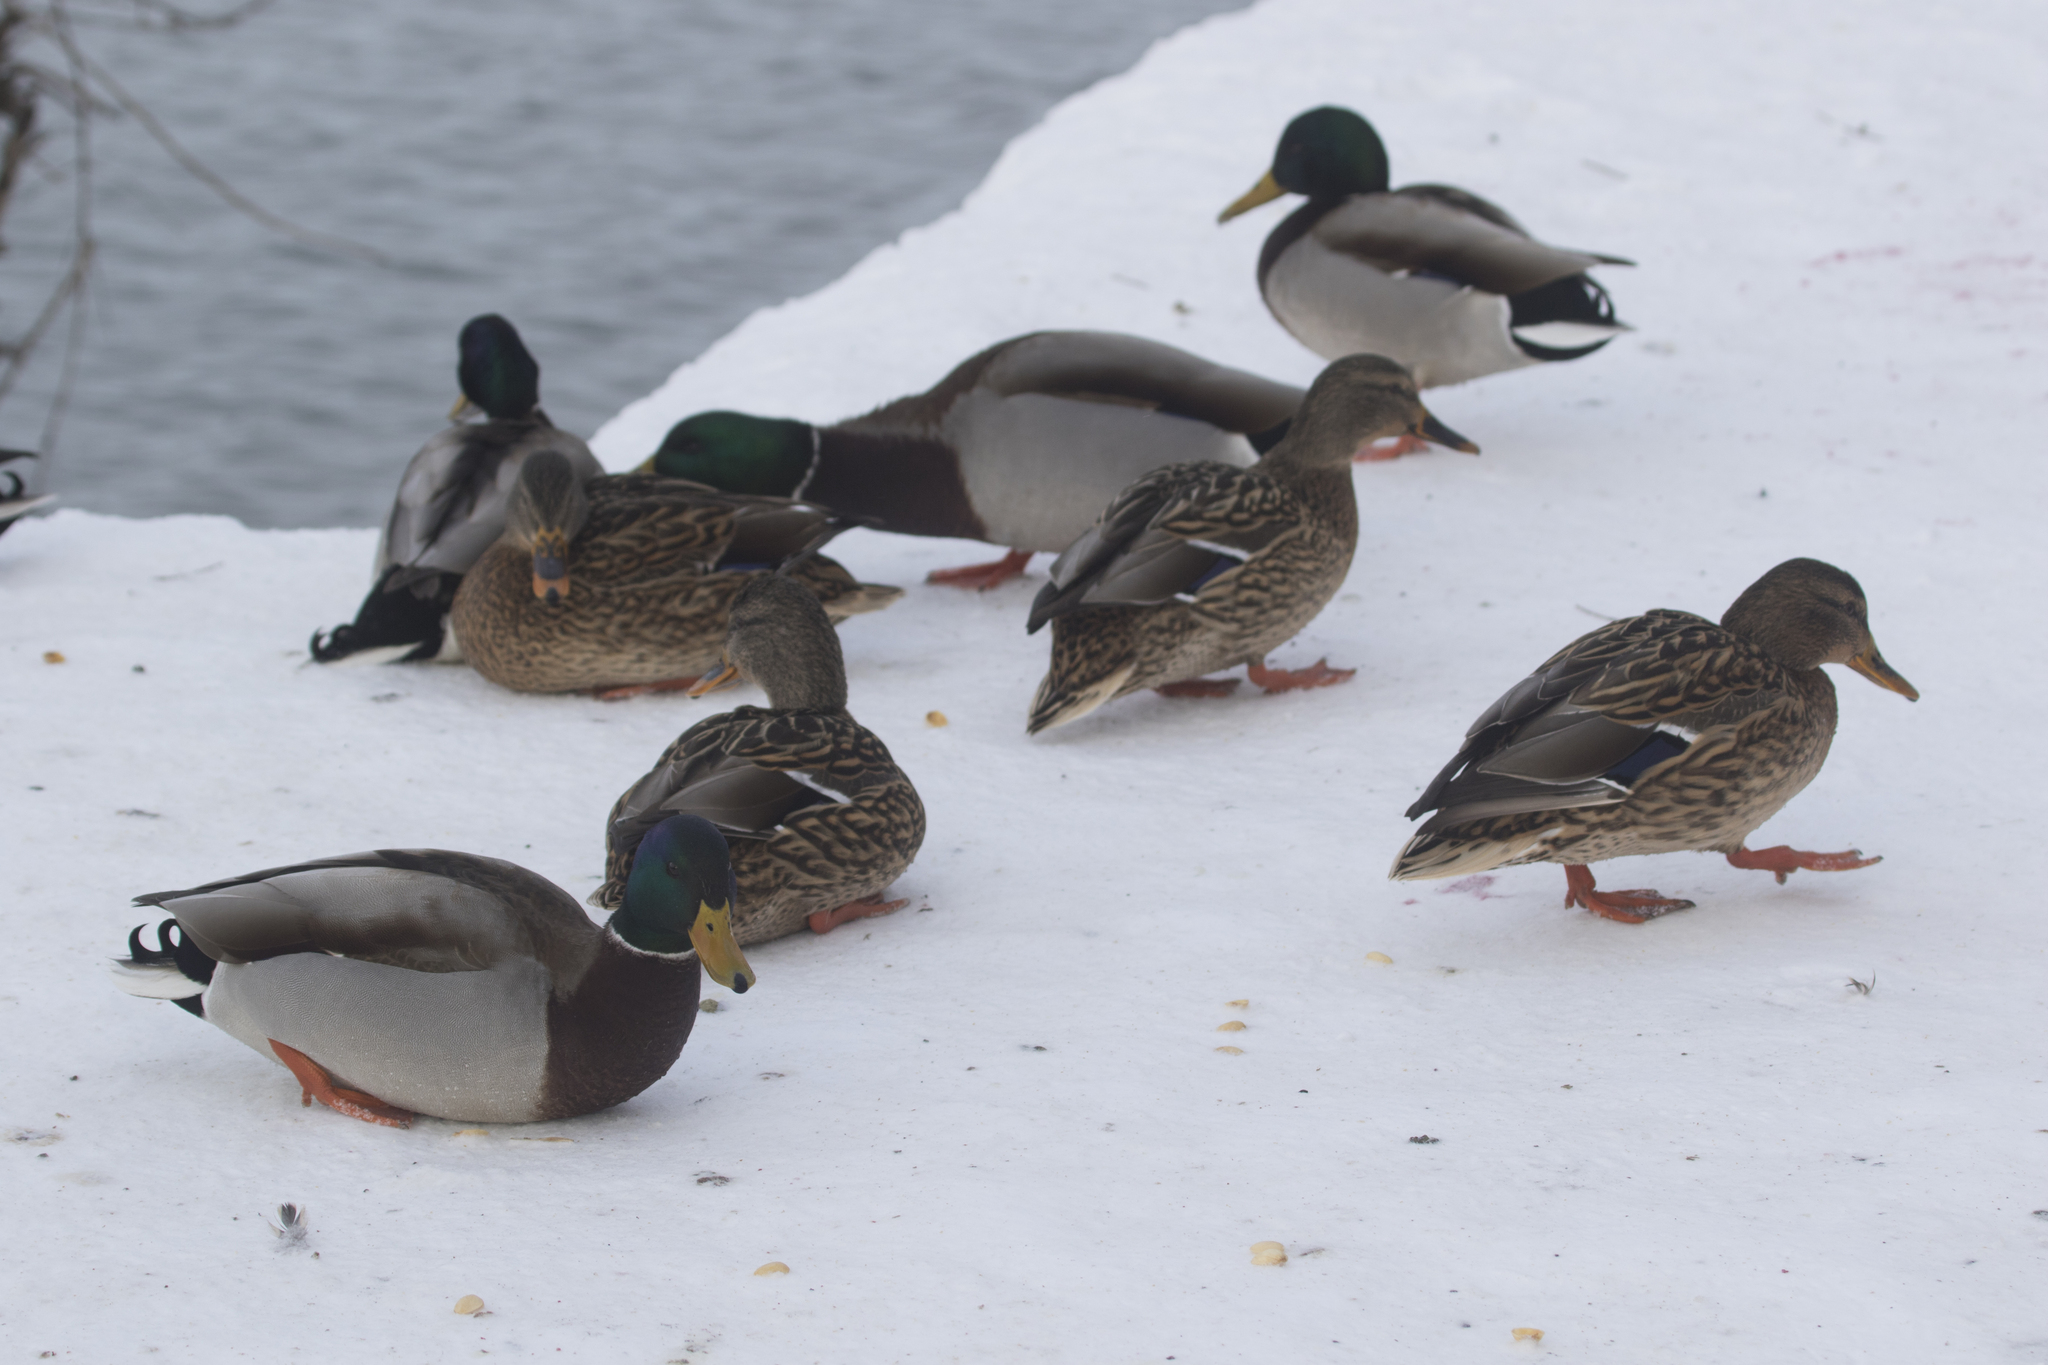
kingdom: Animalia
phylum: Chordata
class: Aves
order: Anseriformes
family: Anatidae
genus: Anas
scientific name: Anas platyrhynchos
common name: Mallard
